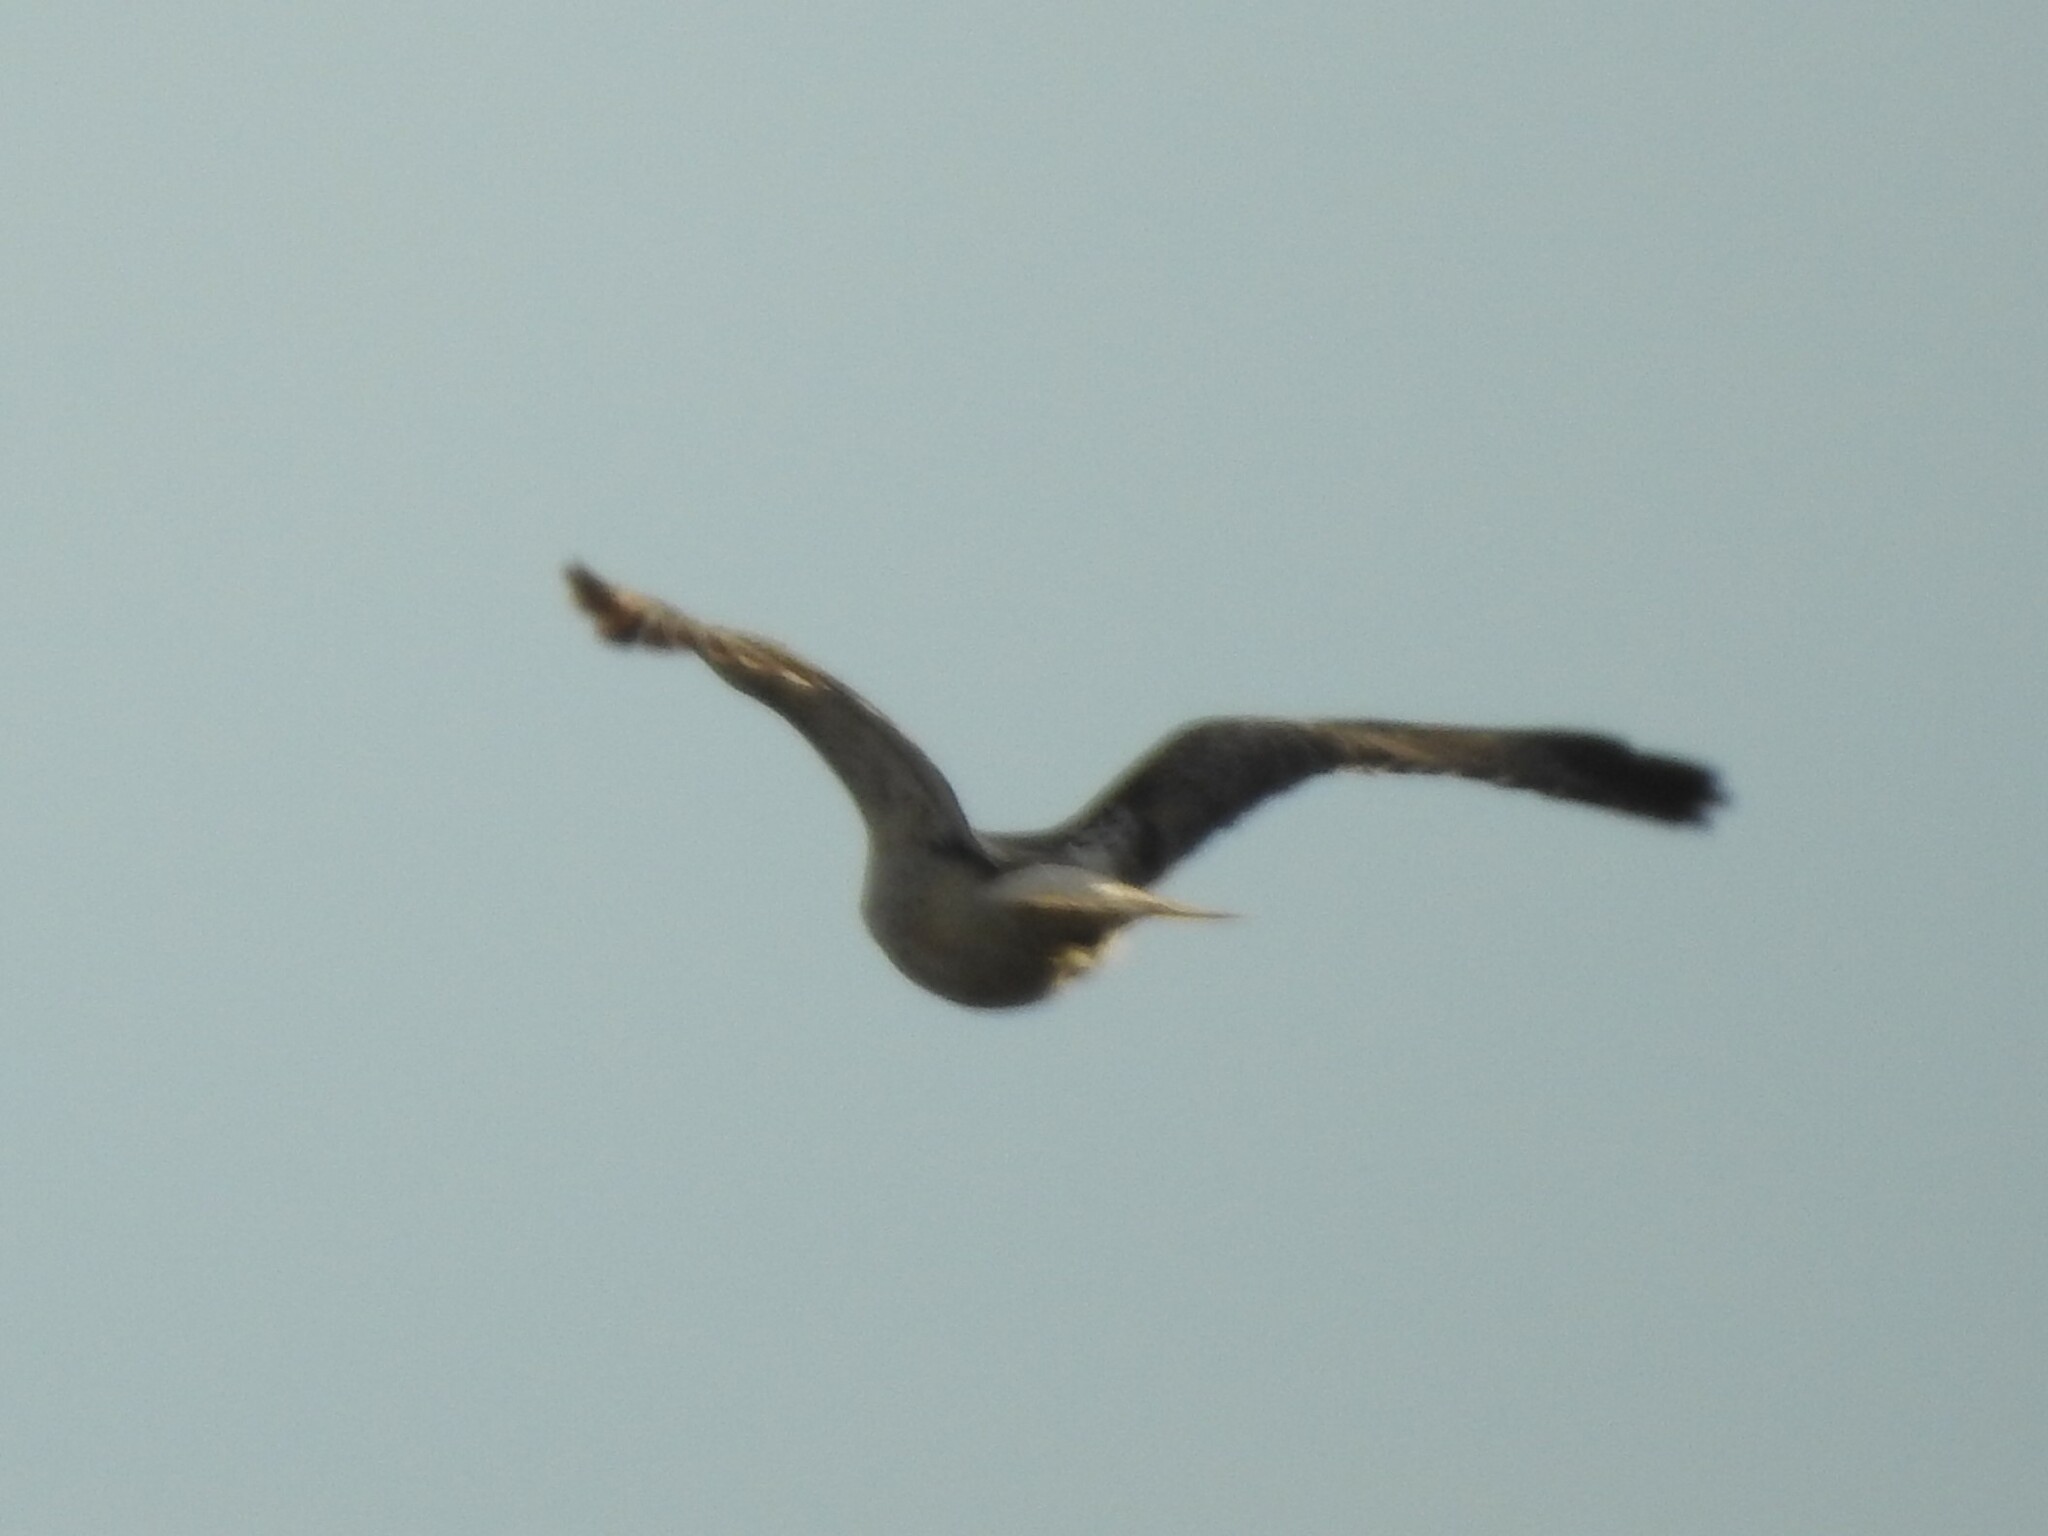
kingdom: Animalia
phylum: Chordata
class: Aves
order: Accipitriformes
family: Accipitridae
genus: Buteo
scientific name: Buteo jamaicensis
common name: Red-tailed hawk
